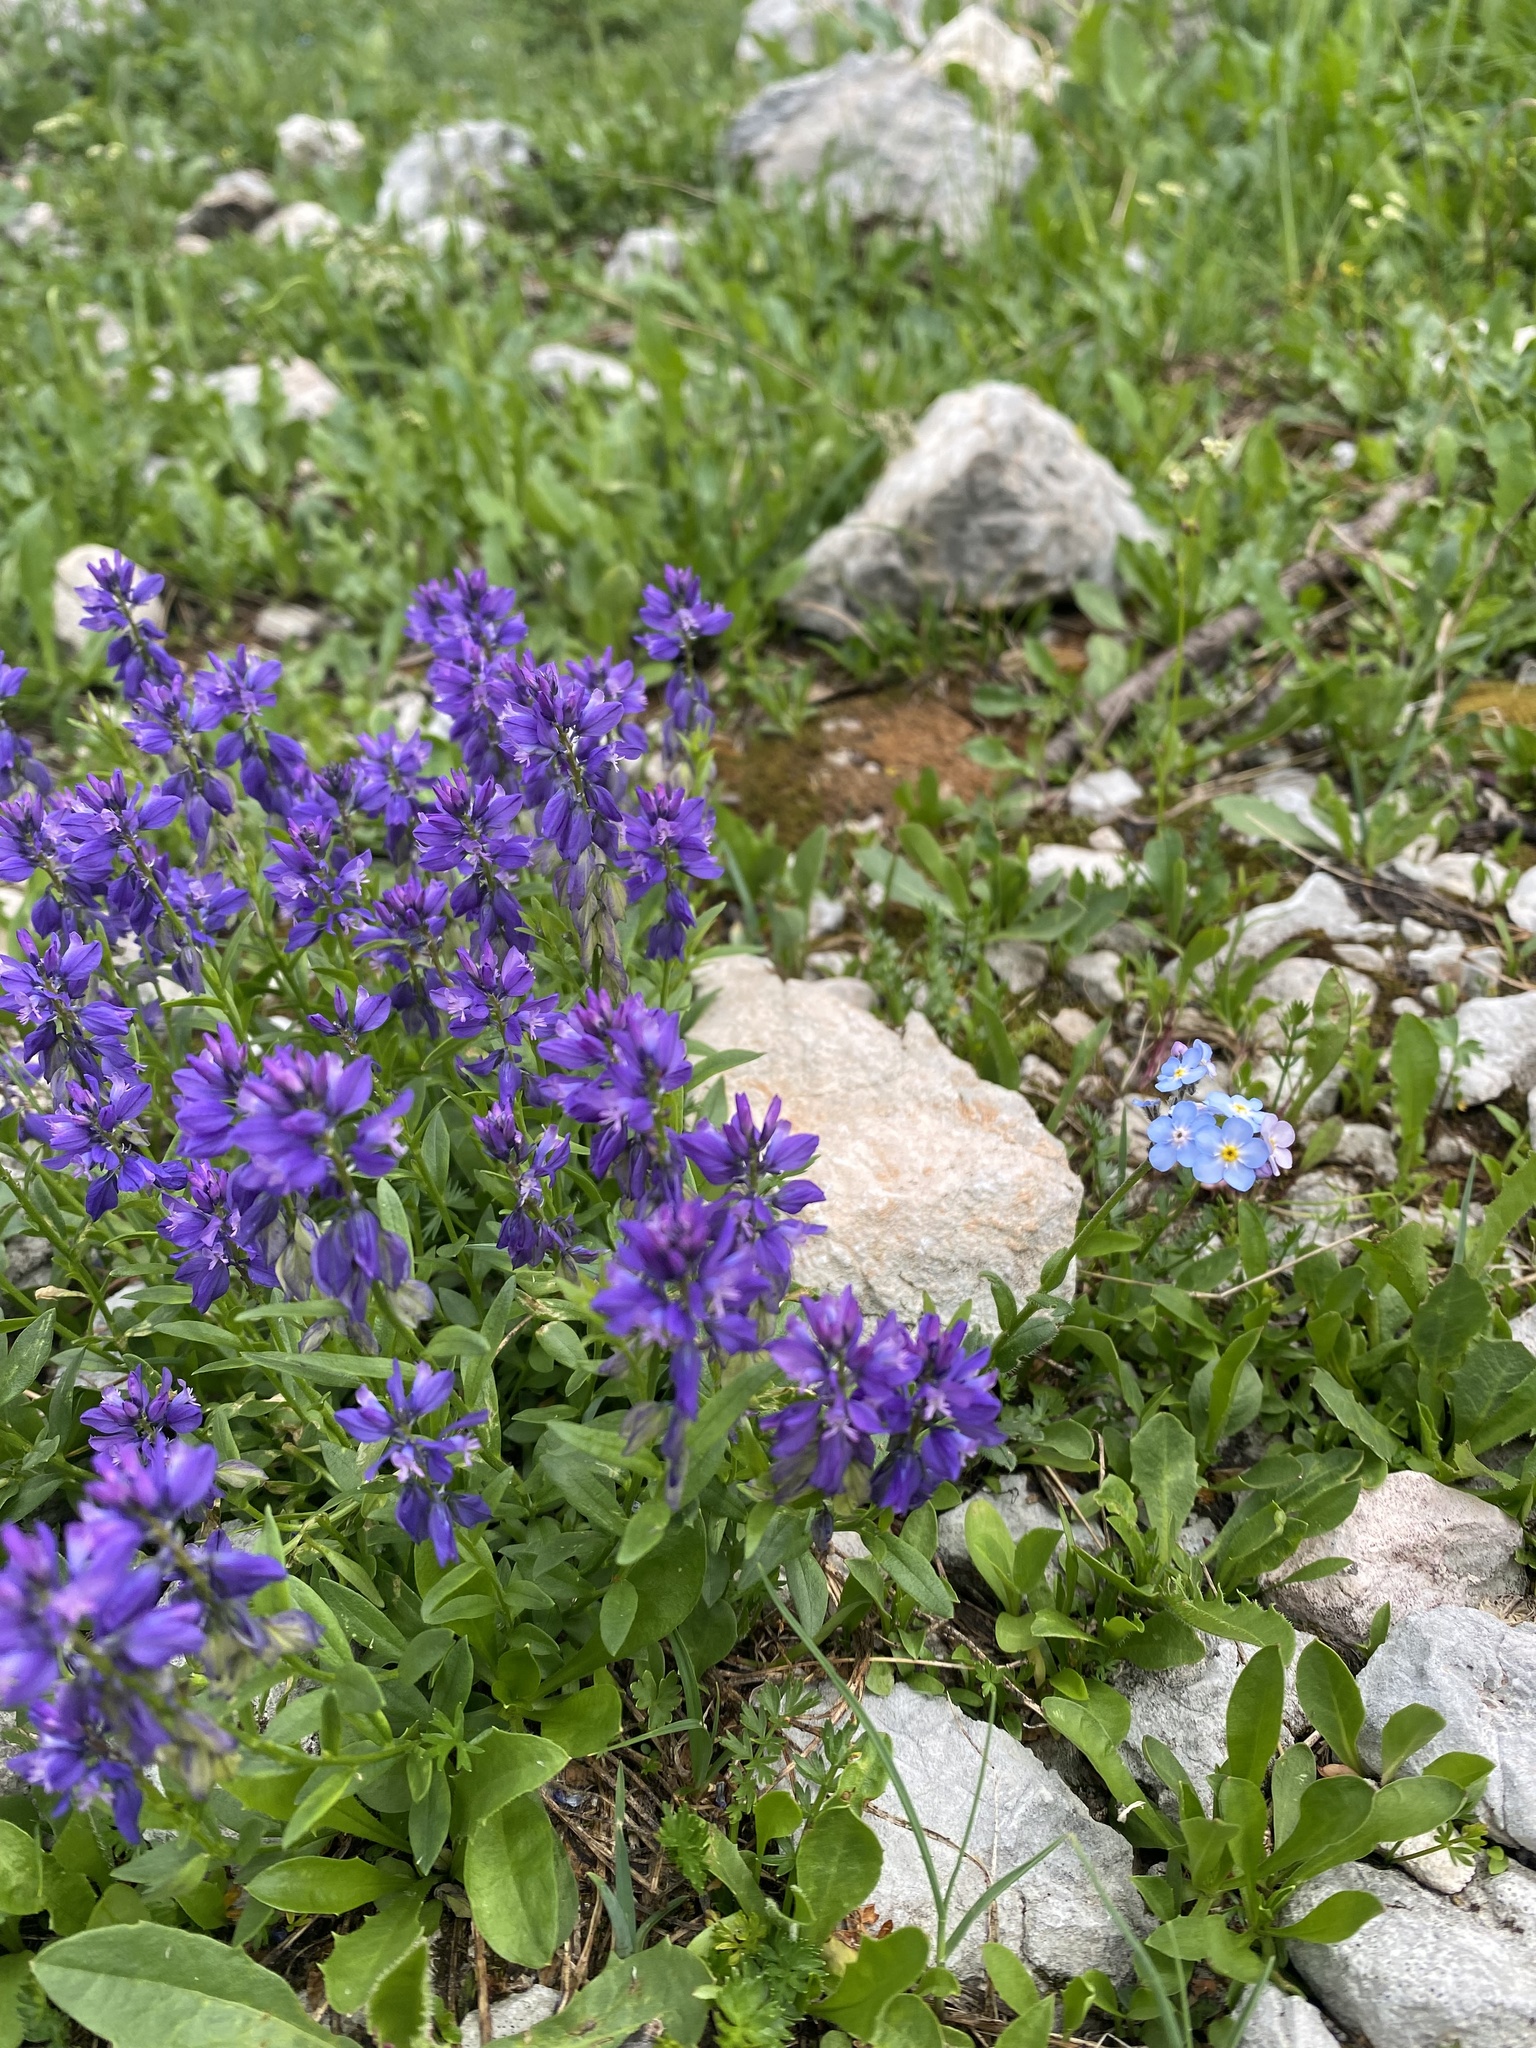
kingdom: Plantae
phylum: Tracheophyta
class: Magnoliopsida
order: Fabales
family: Polygalaceae
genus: Polygala
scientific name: Polygala caucasica
